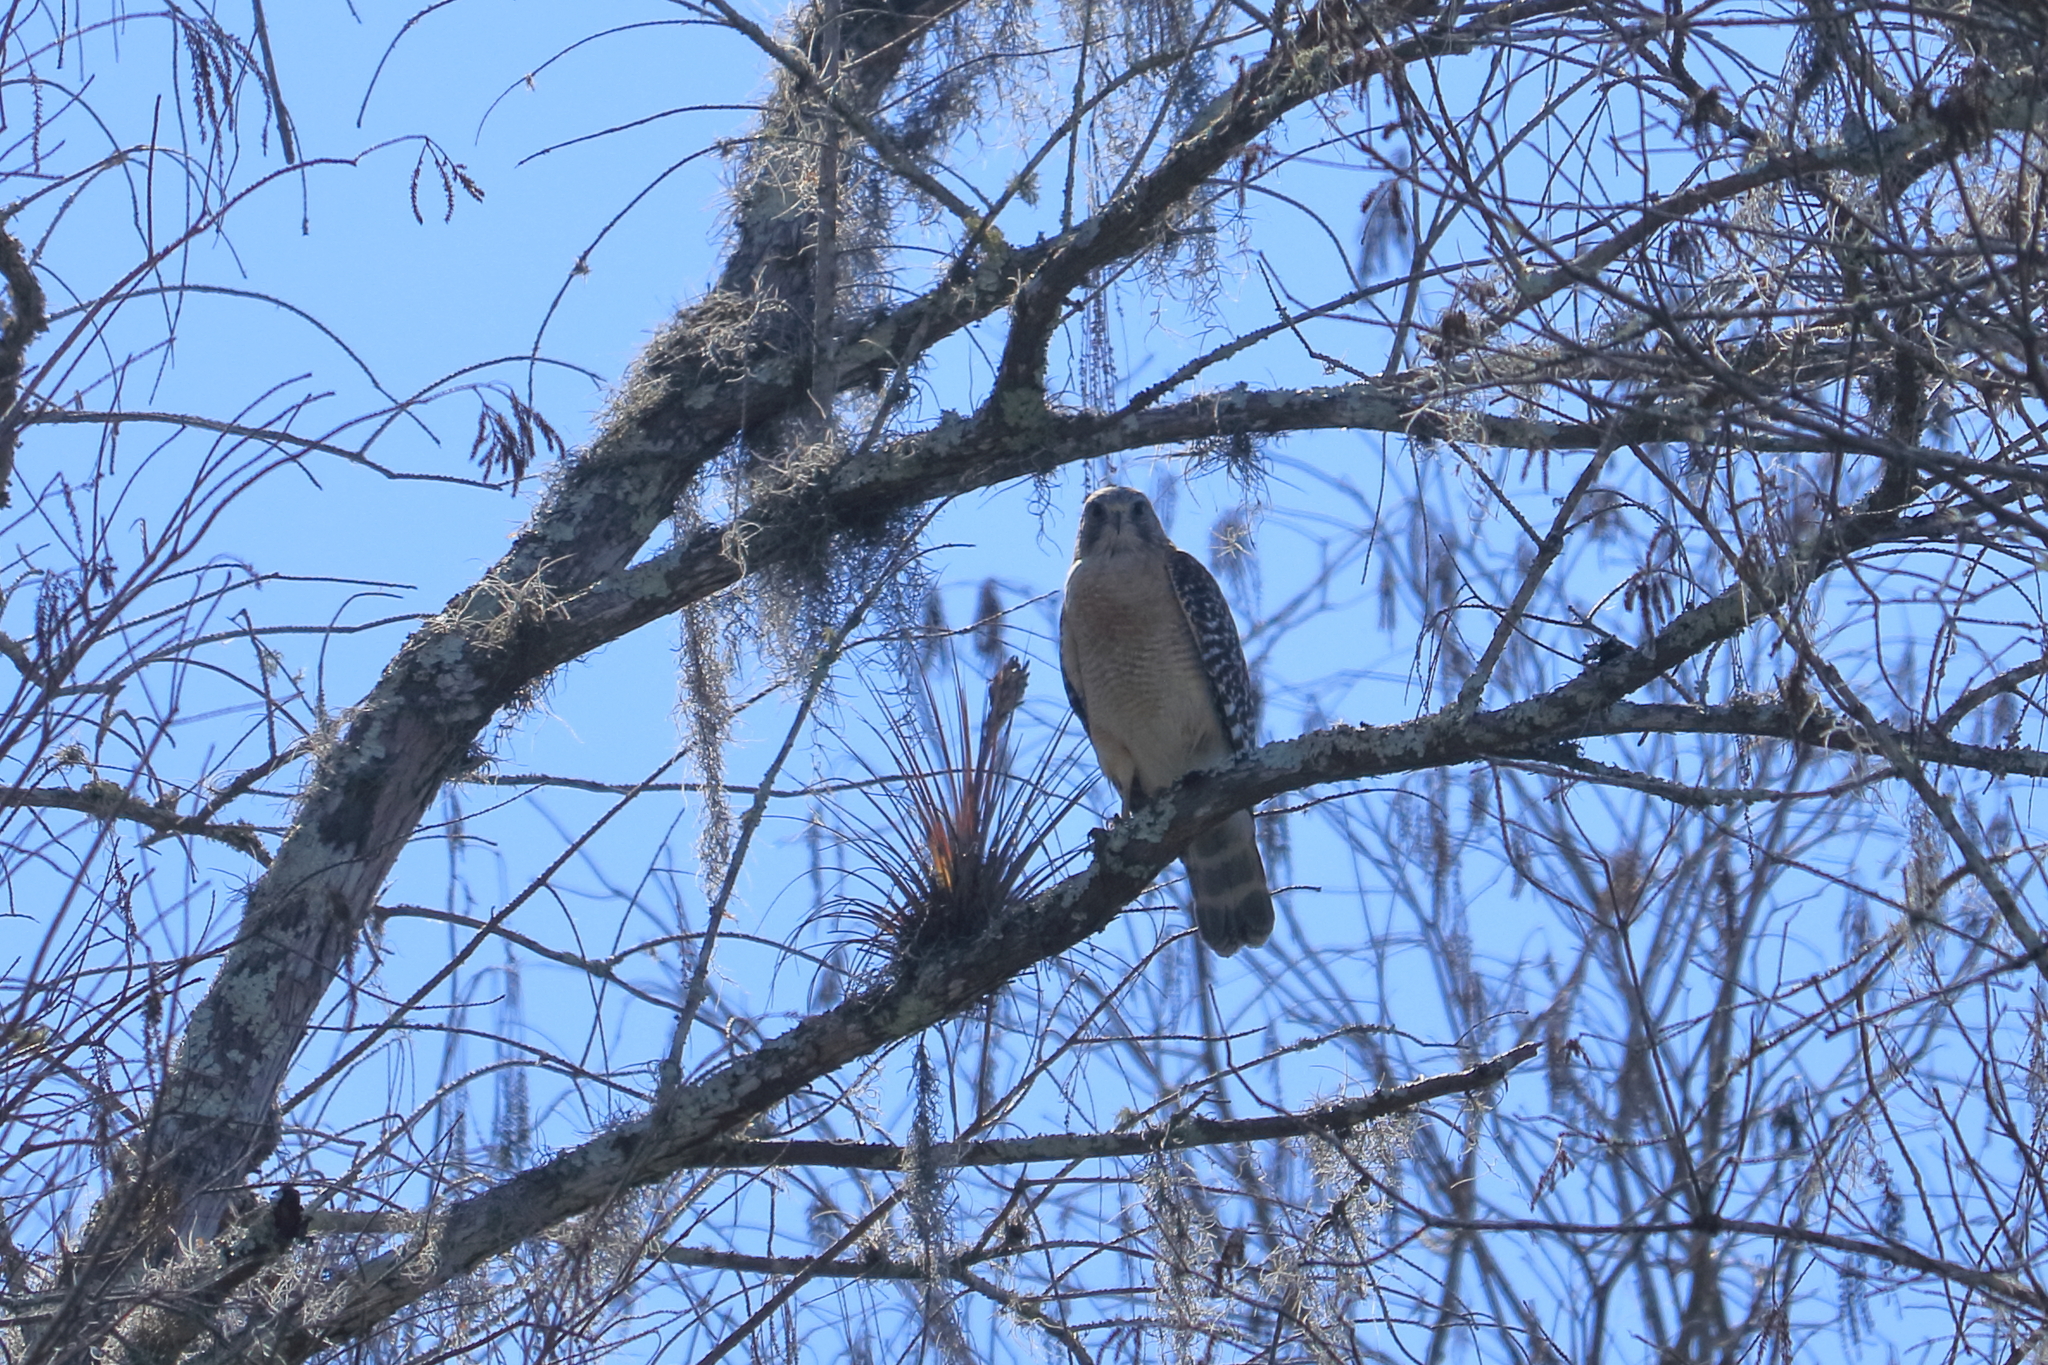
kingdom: Animalia
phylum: Chordata
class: Aves
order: Accipitriformes
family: Accipitridae
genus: Buteo
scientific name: Buteo lineatus
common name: Red-shouldered hawk
